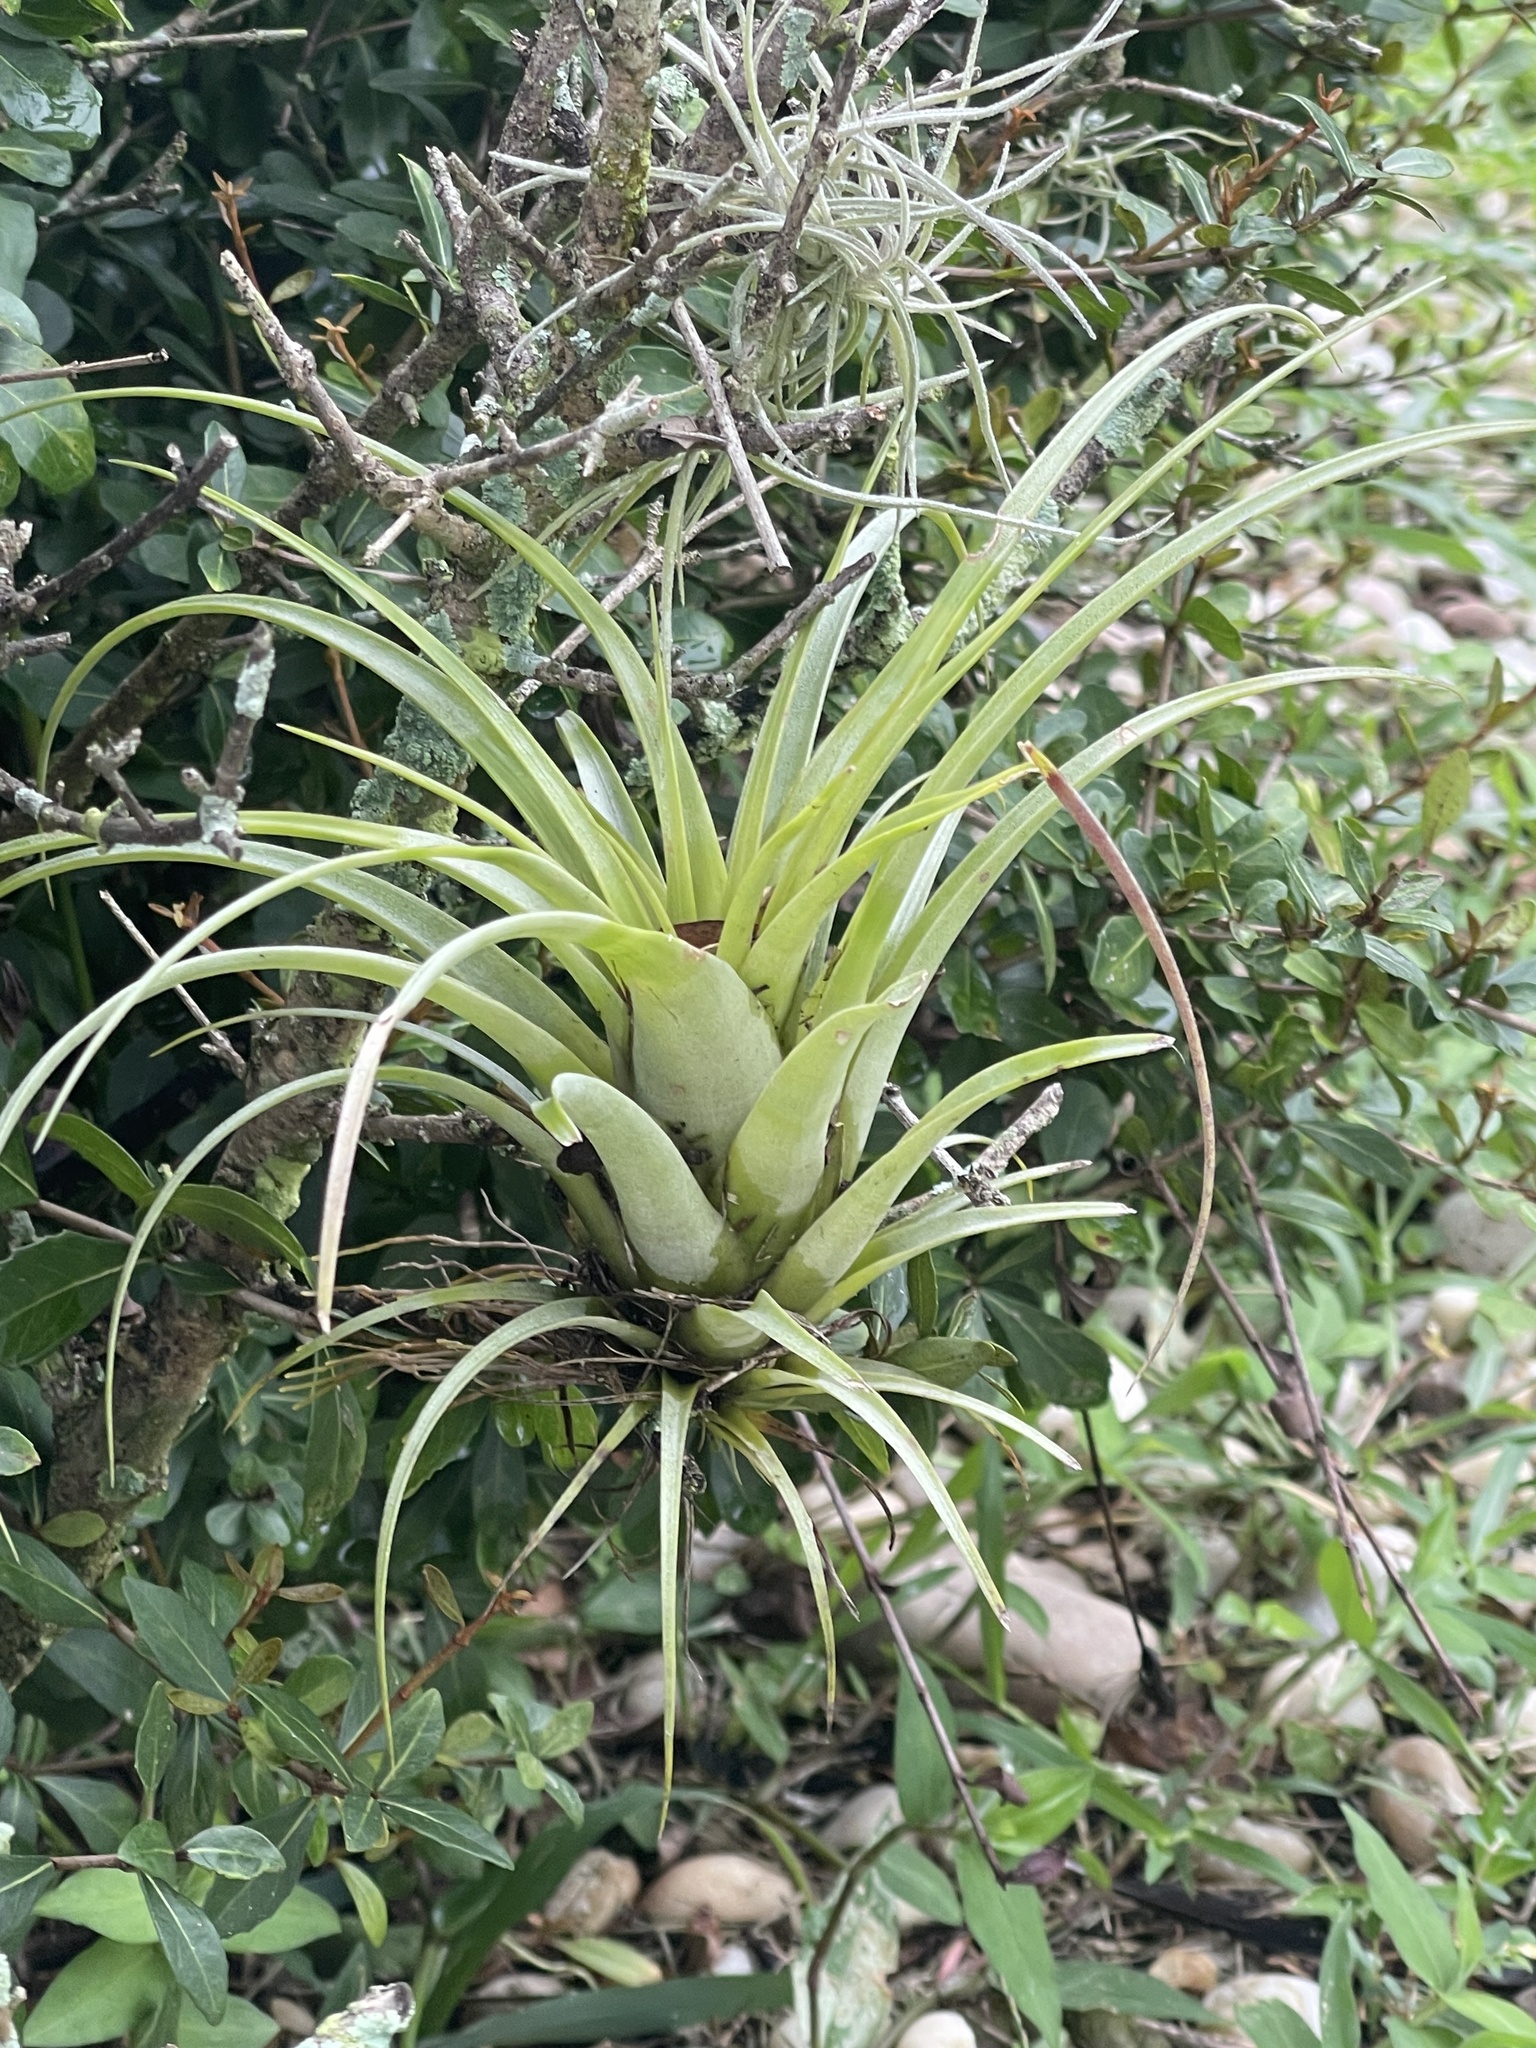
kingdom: Plantae
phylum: Tracheophyta
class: Liliopsida
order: Poales
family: Bromeliaceae
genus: Tillandsia
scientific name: Tillandsia utriculata
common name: Wild pine
